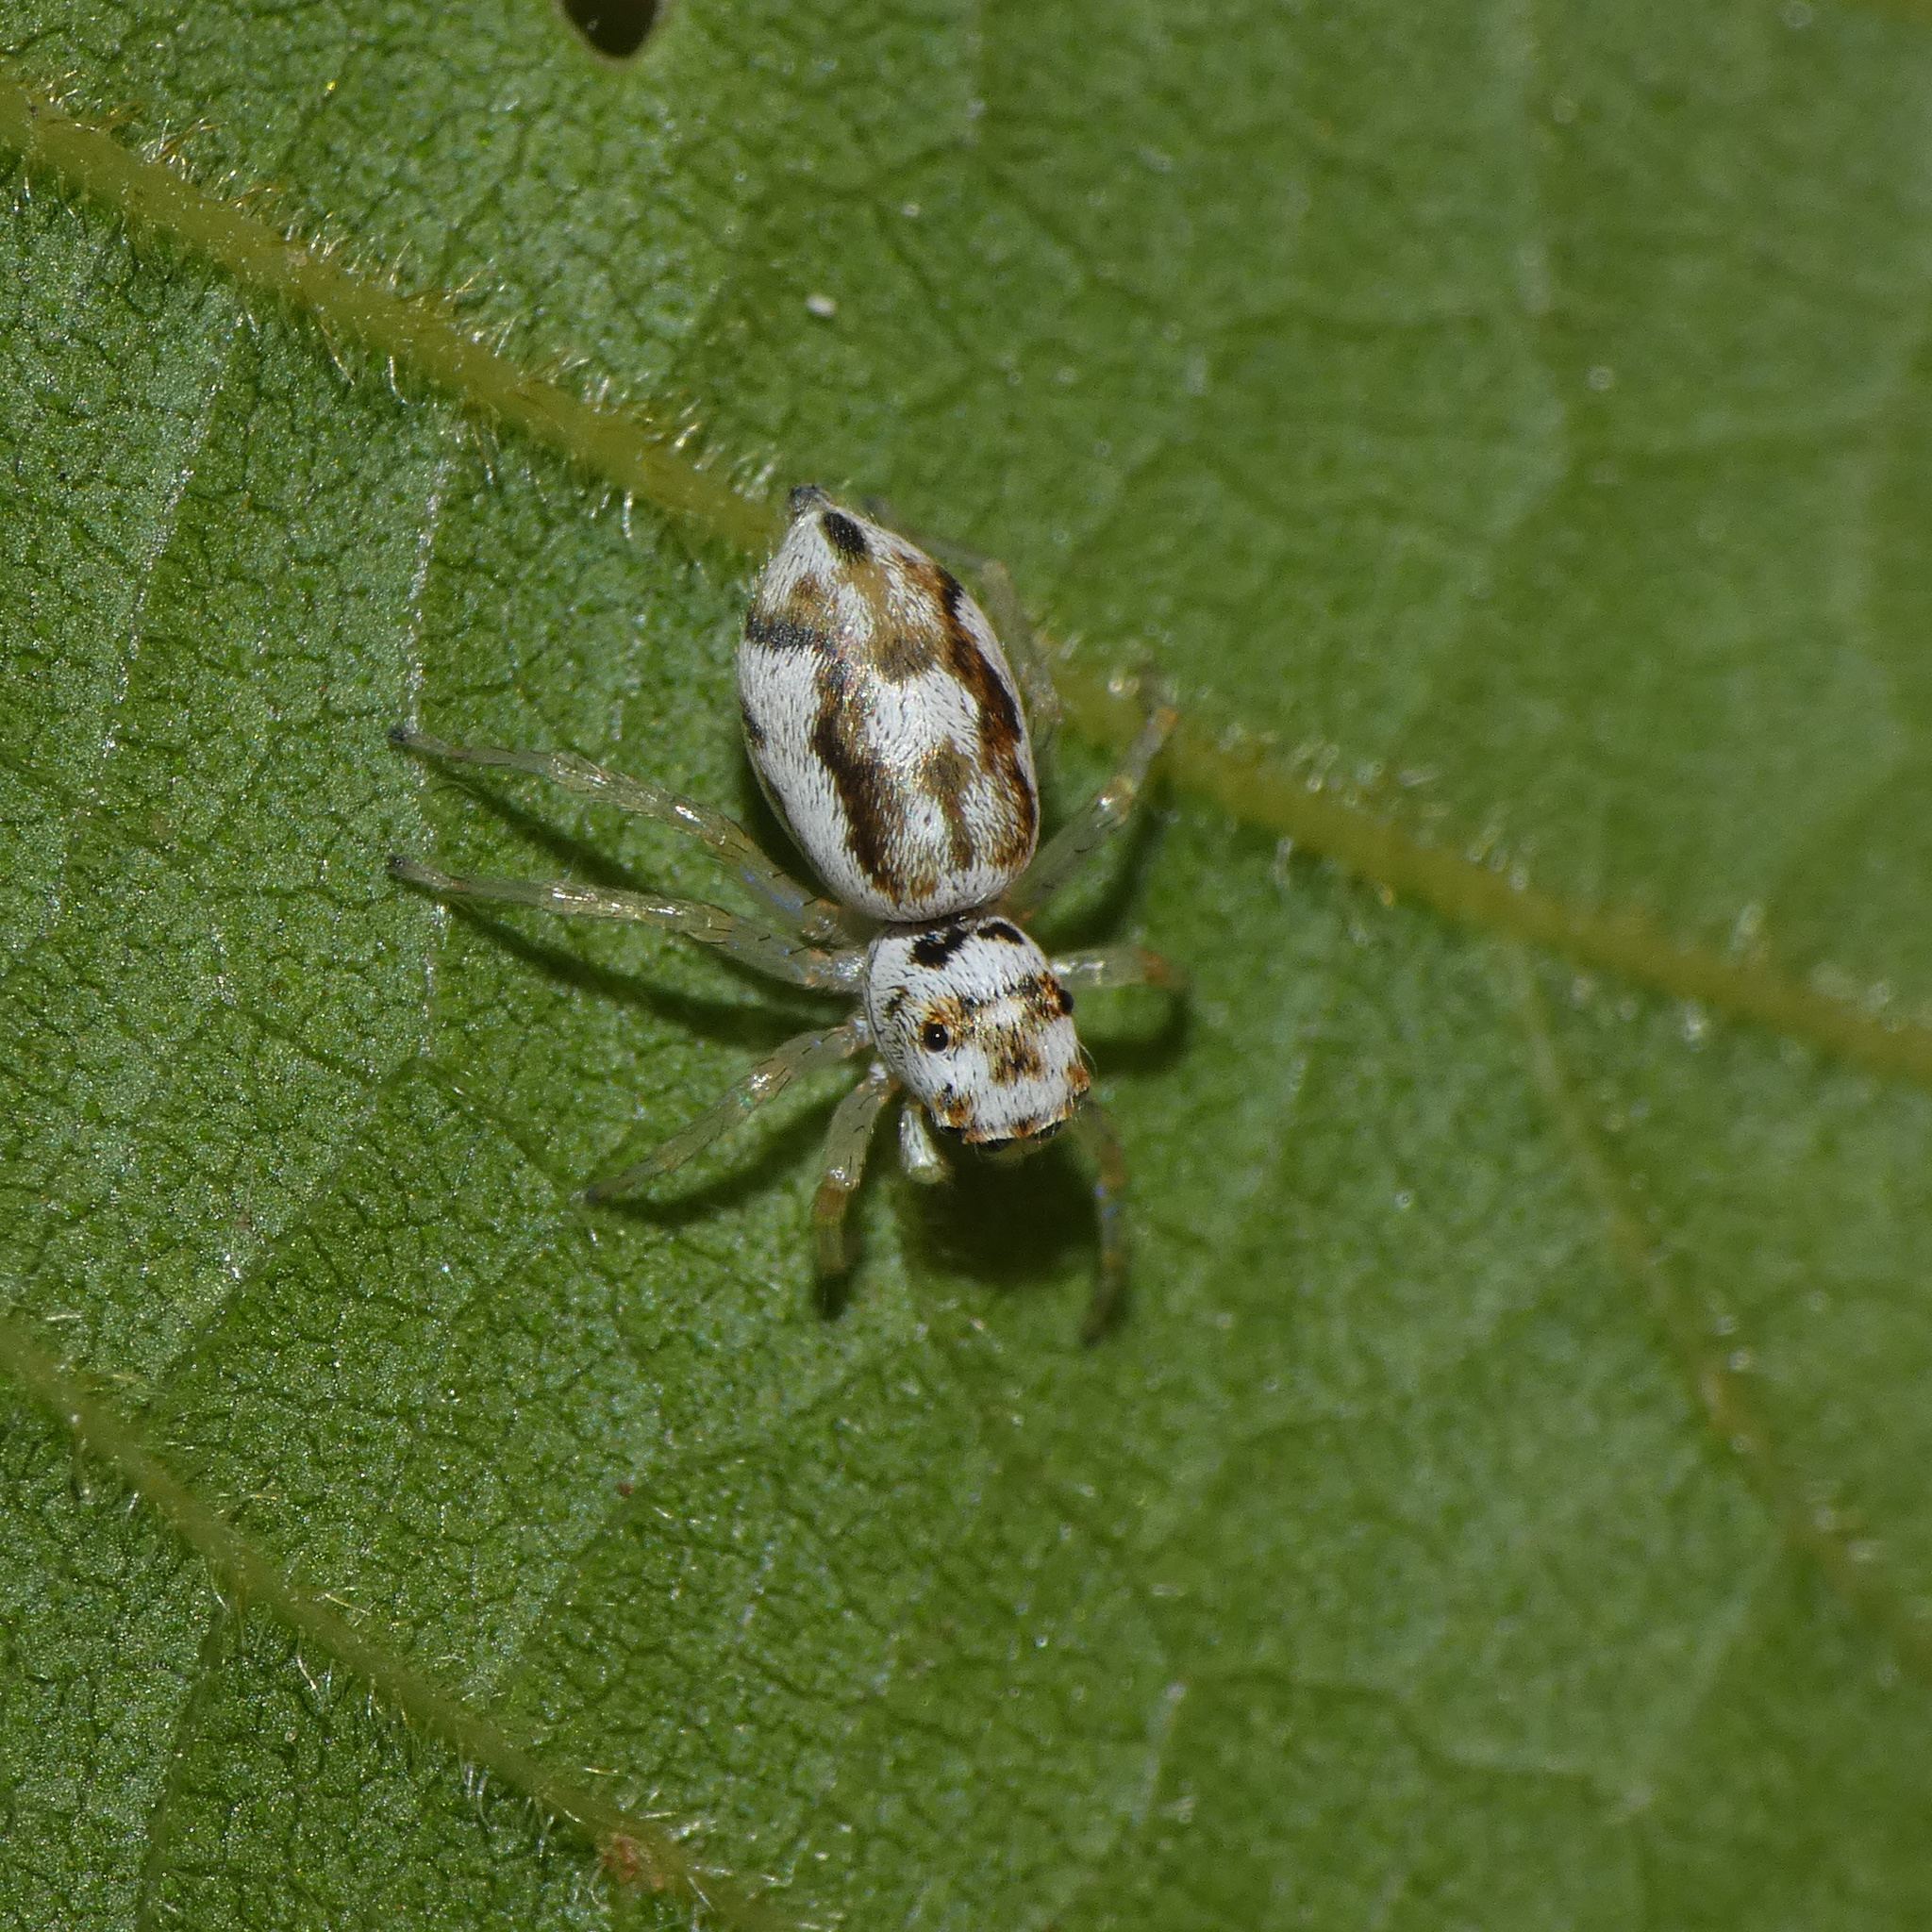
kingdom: Animalia
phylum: Arthropoda
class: Arachnida
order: Araneae
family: Salticidae
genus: Phintella
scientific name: Phintella aequipes
